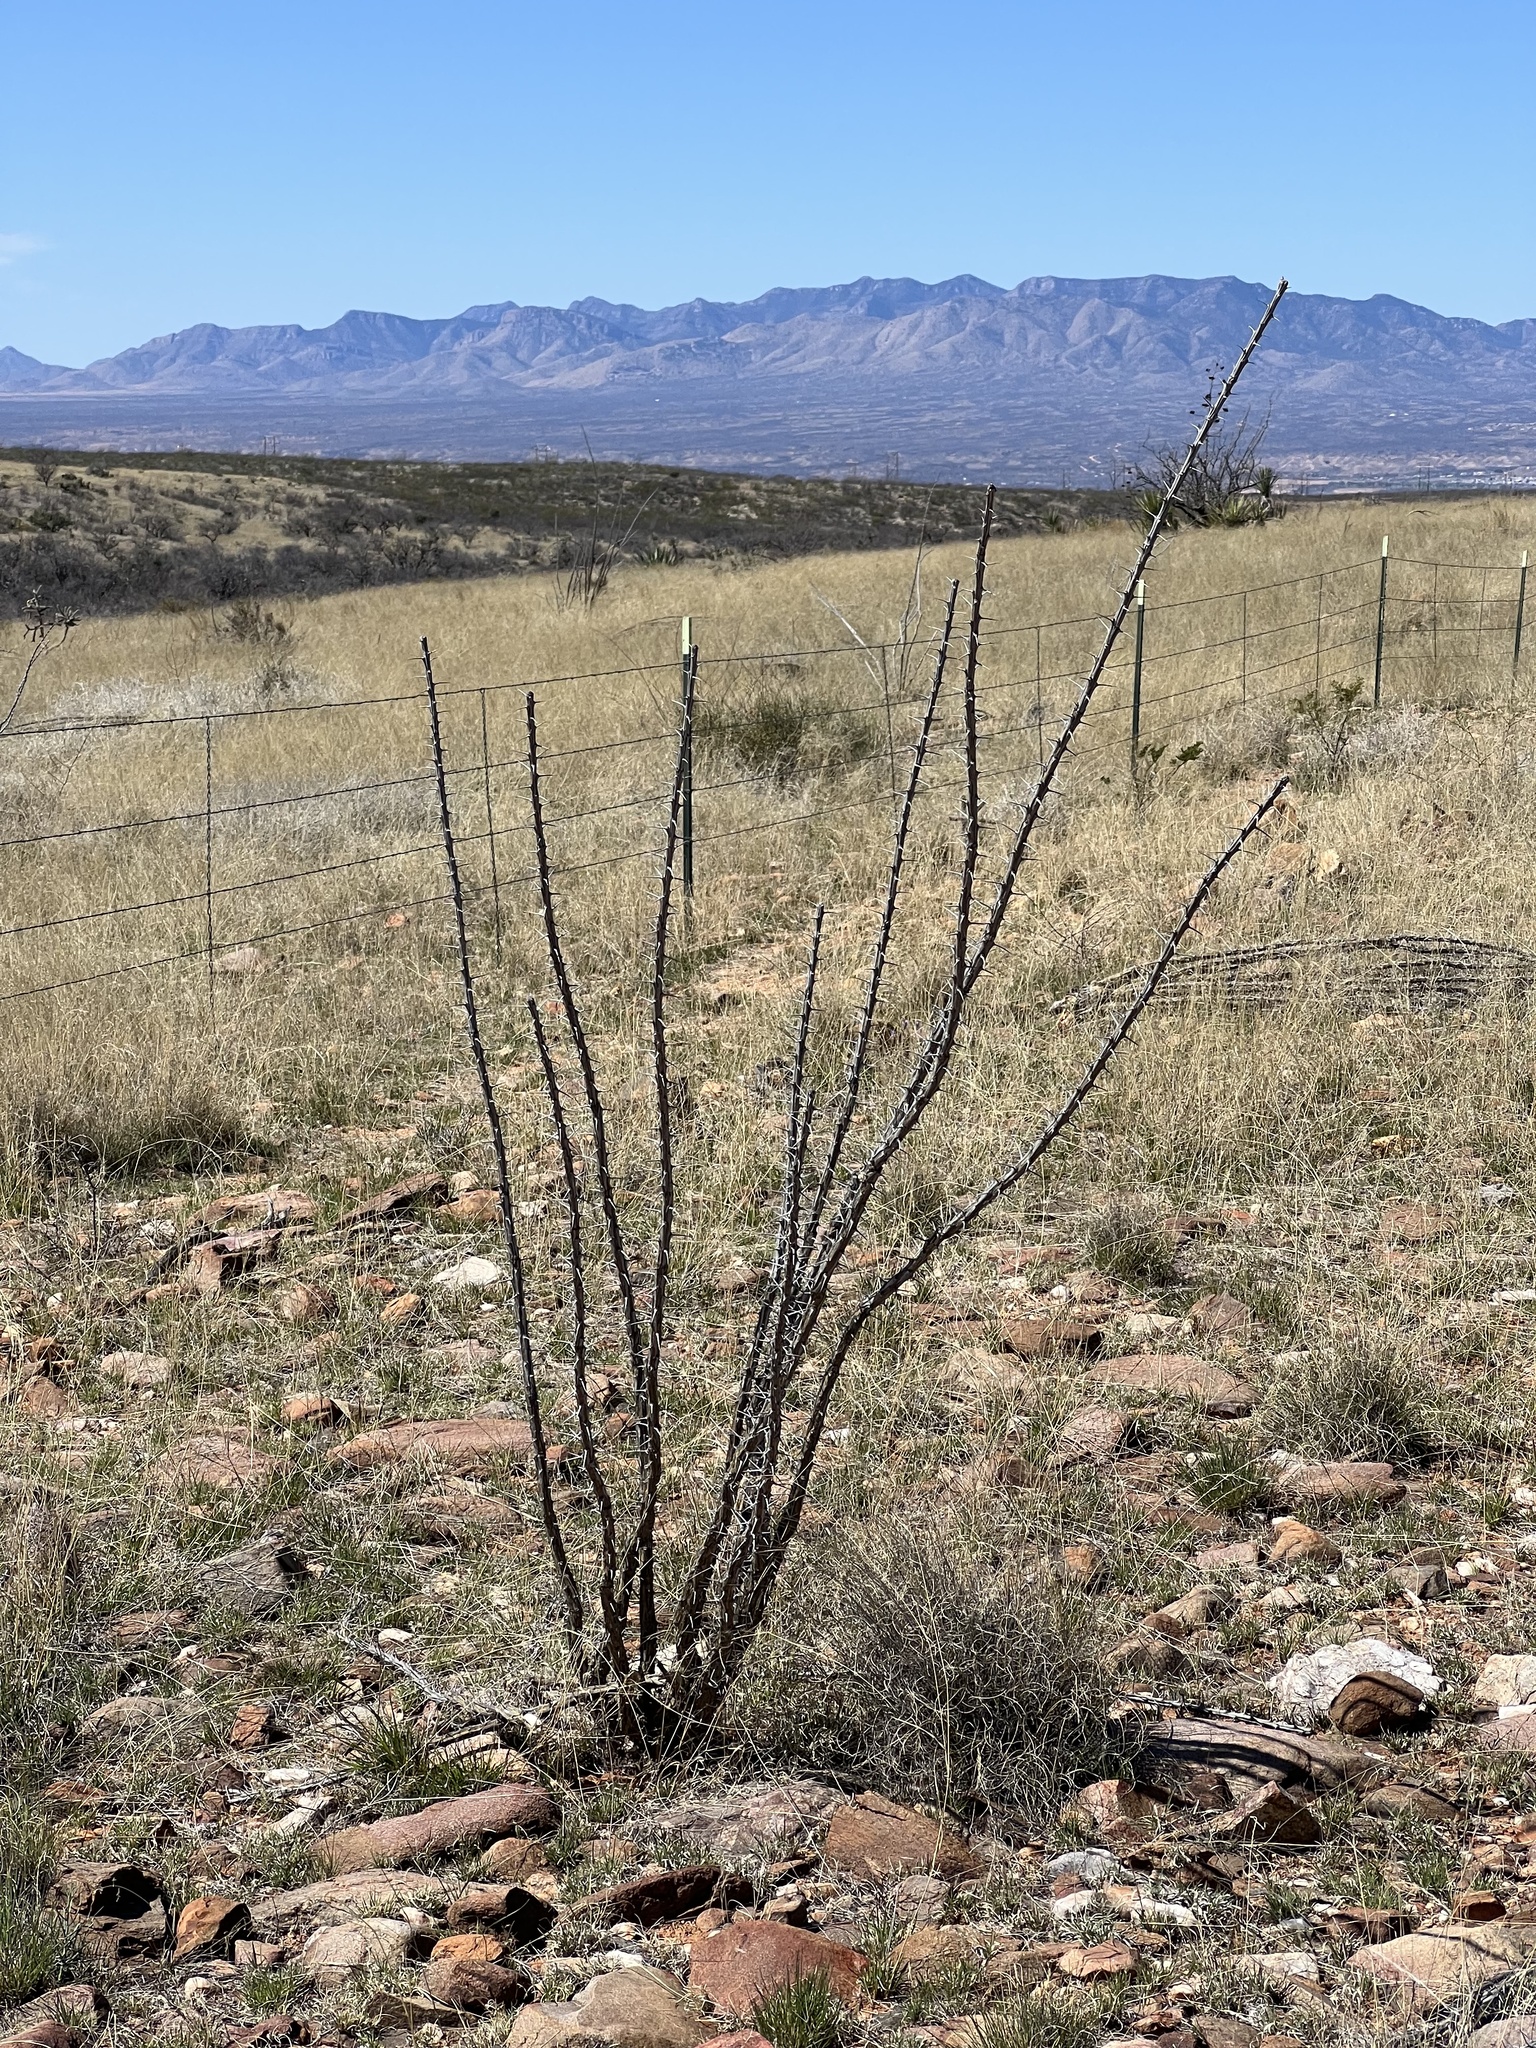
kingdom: Plantae
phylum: Tracheophyta
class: Magnoliopsida
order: Ericales
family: Fouquieriaceae
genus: Fouquieria
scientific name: Fouquieria splendens
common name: Vine-cactus
